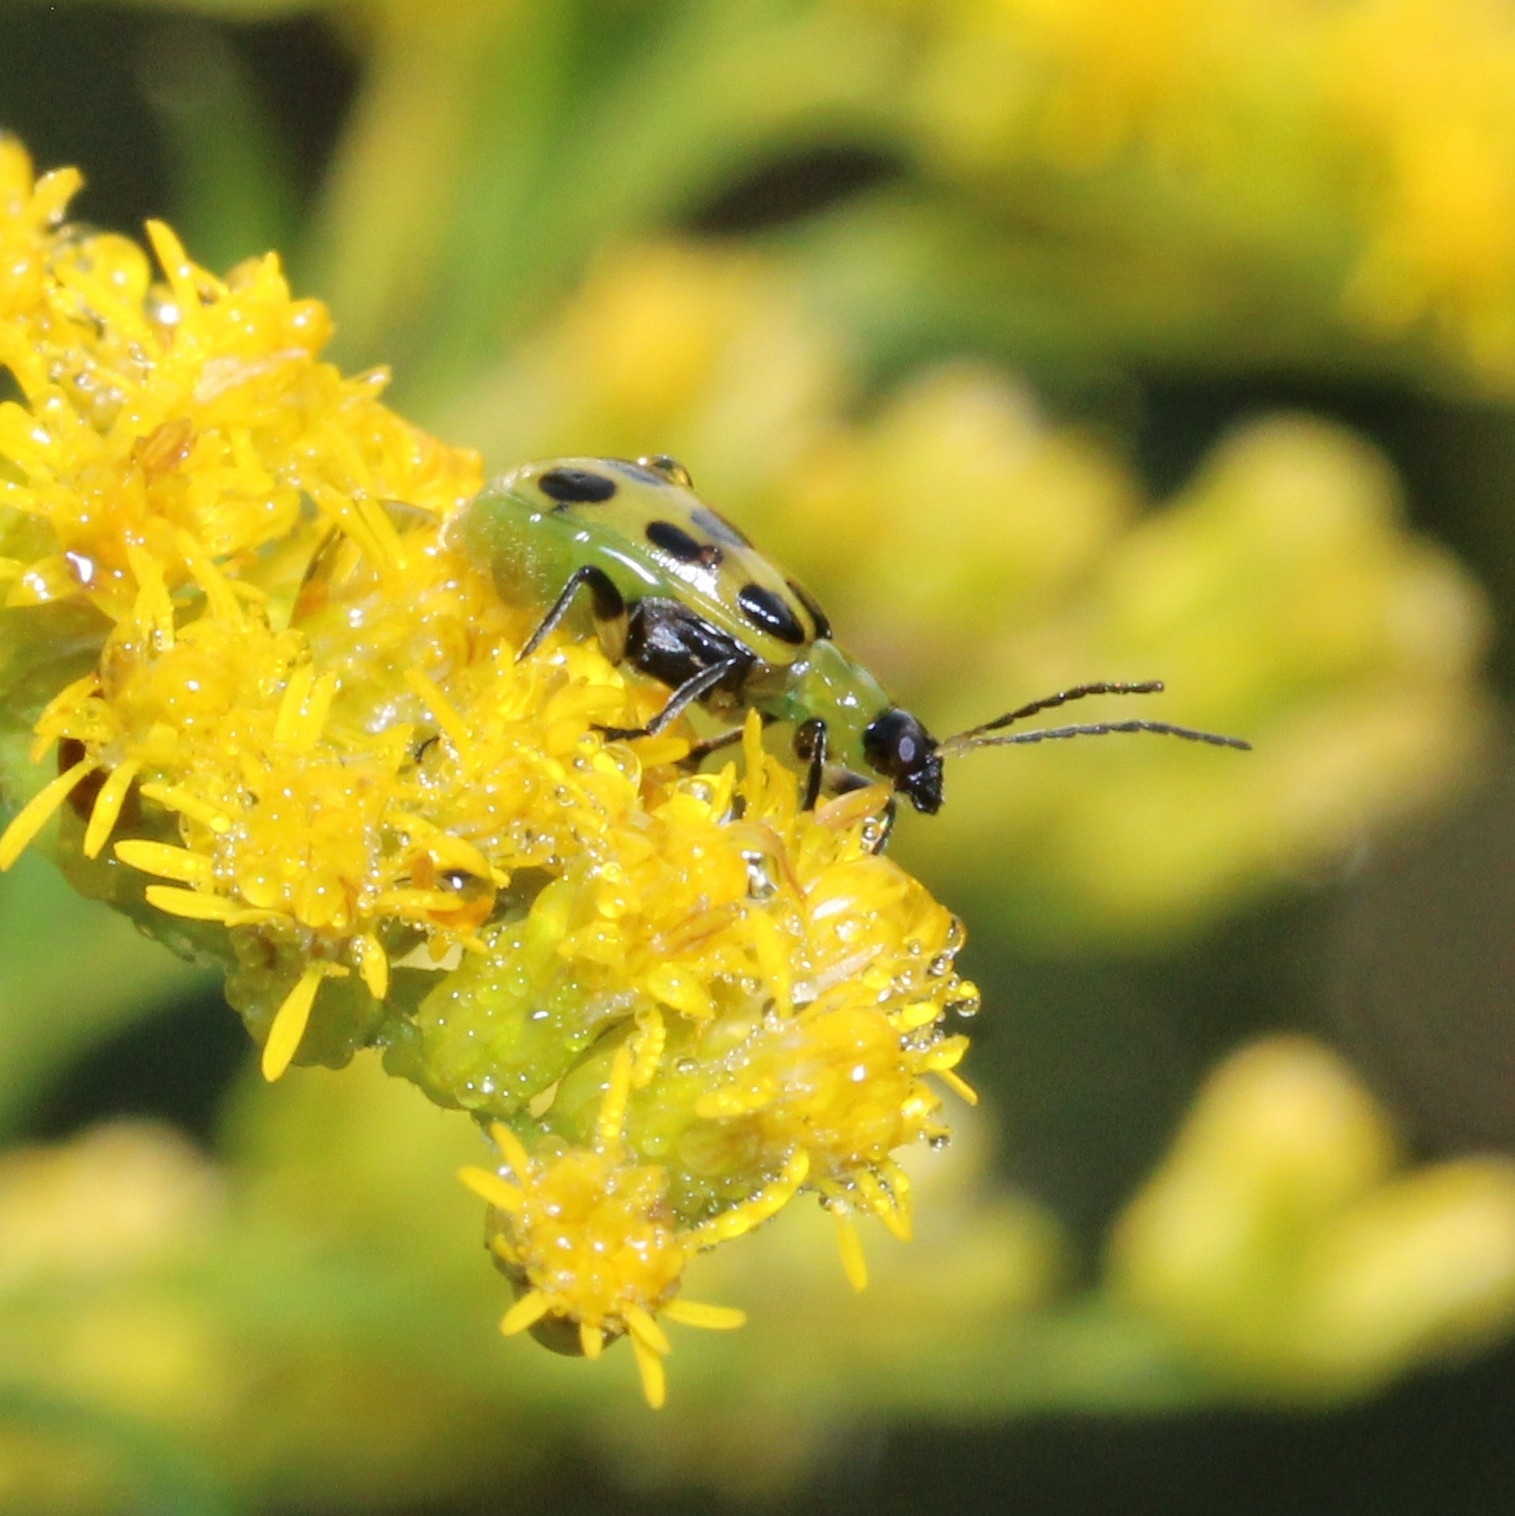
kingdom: Animalia
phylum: Arthropoda
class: Insecta
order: Coleoptera
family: Chrysomelidae
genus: Diabrotica
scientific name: Diabrotica undecimpunctata
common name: Spotted cucumber beetle
